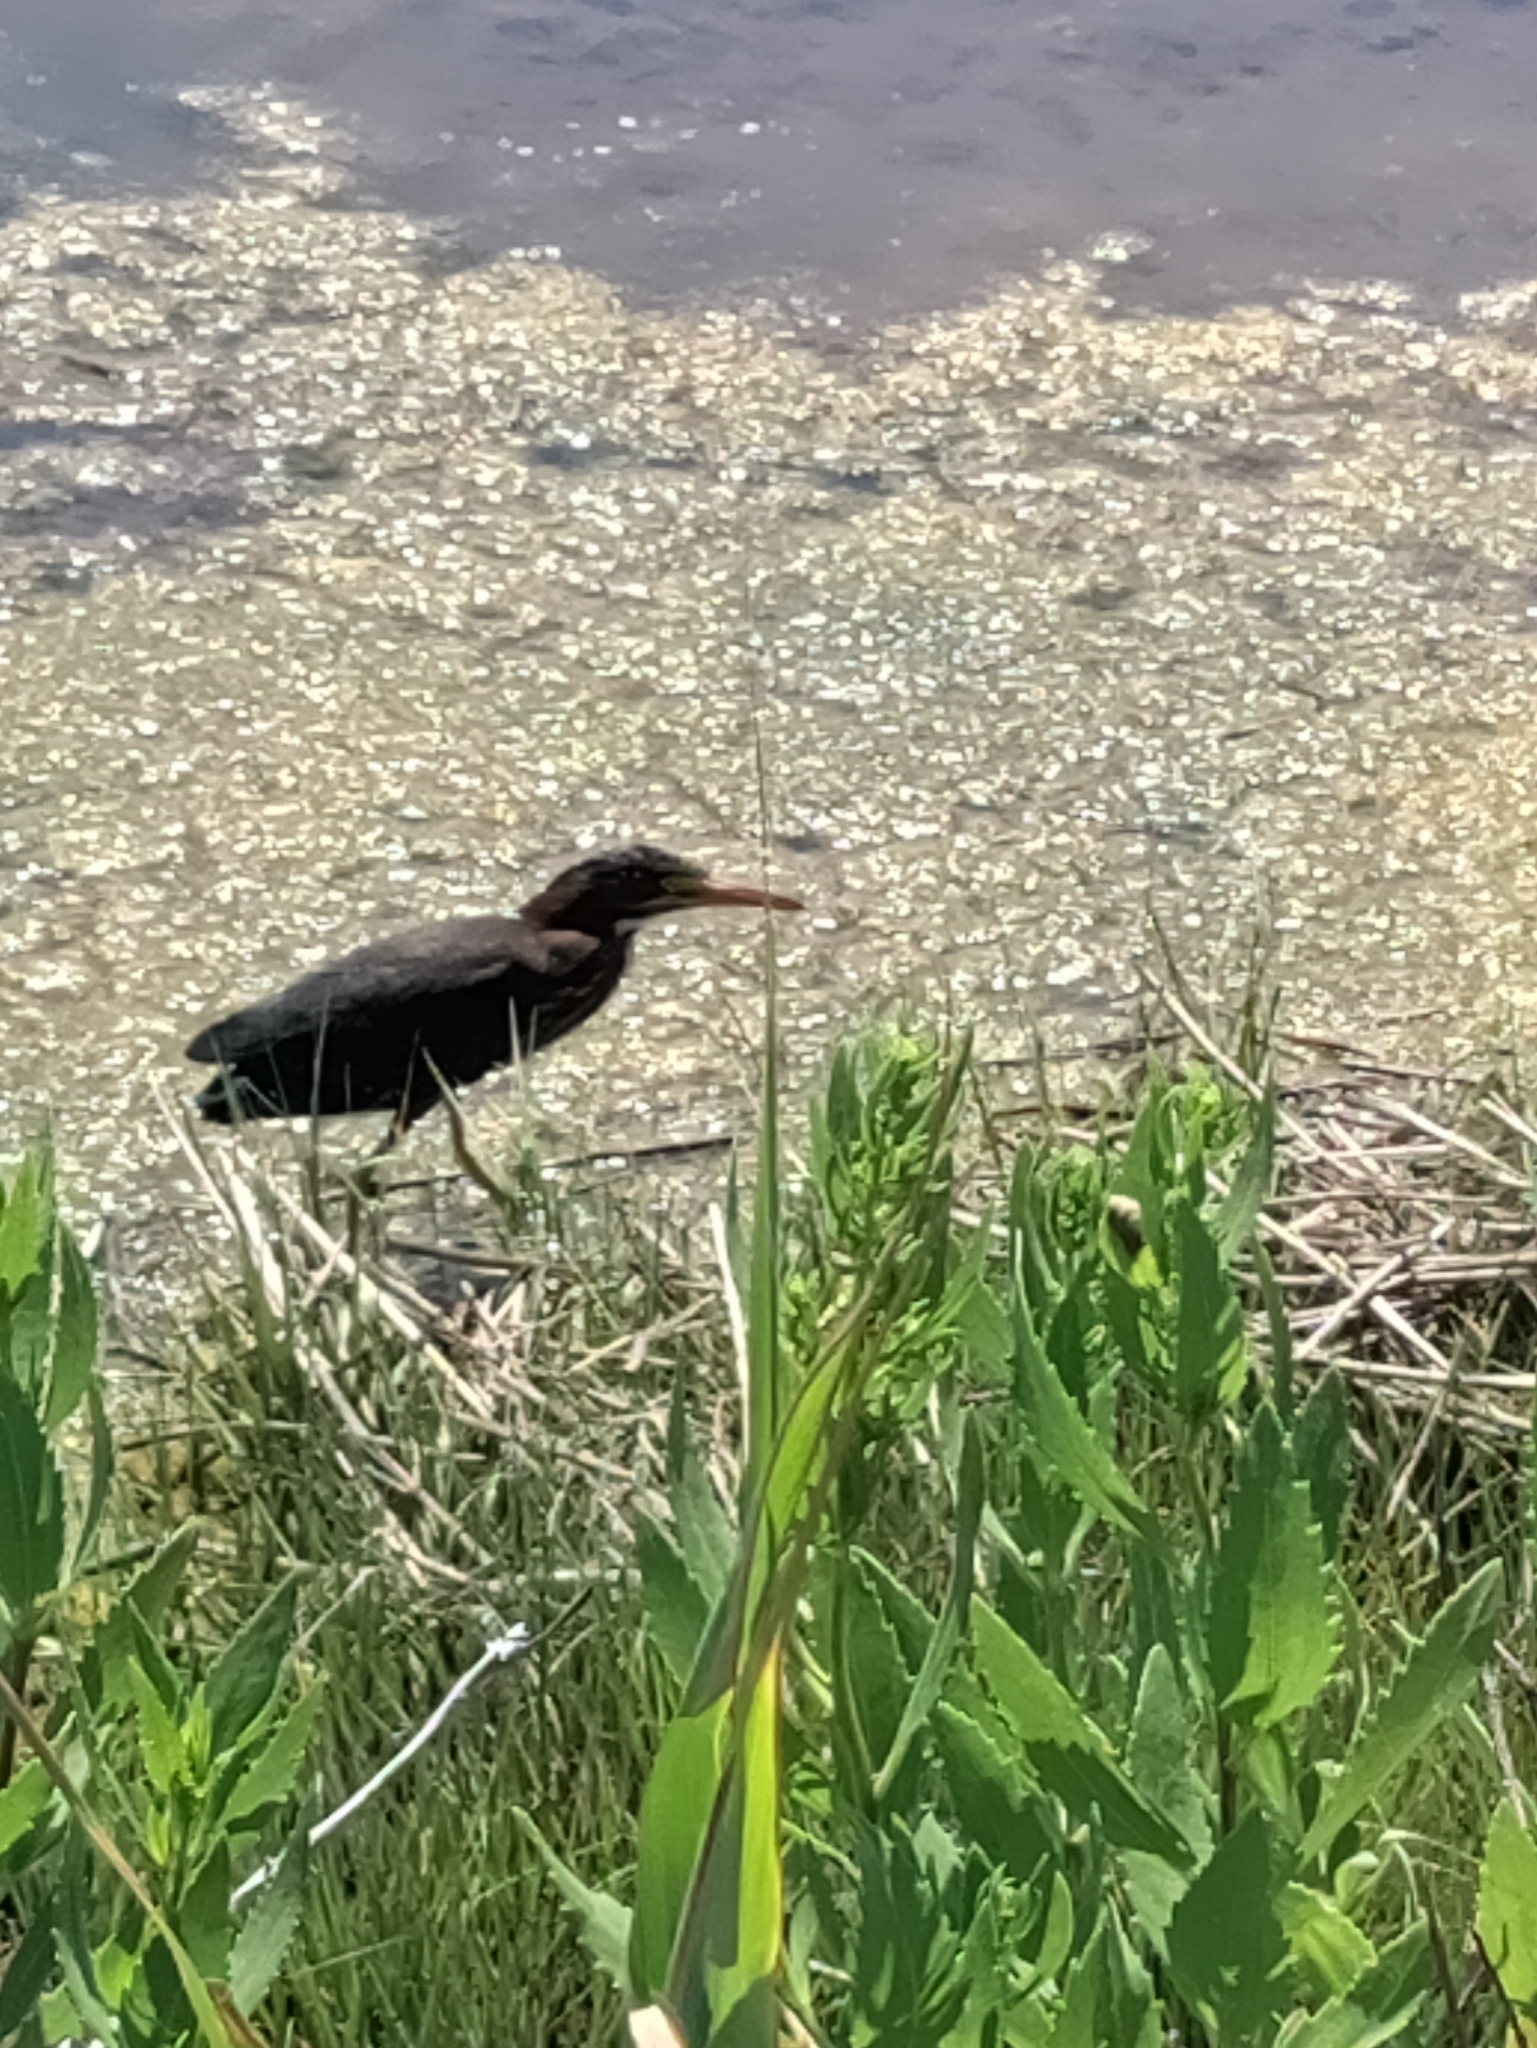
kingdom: Animalia
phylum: Chordata
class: Aves
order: Pelecaniformes
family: Ardeidae
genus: Butorides
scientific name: Butorides virescens
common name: Green heron
